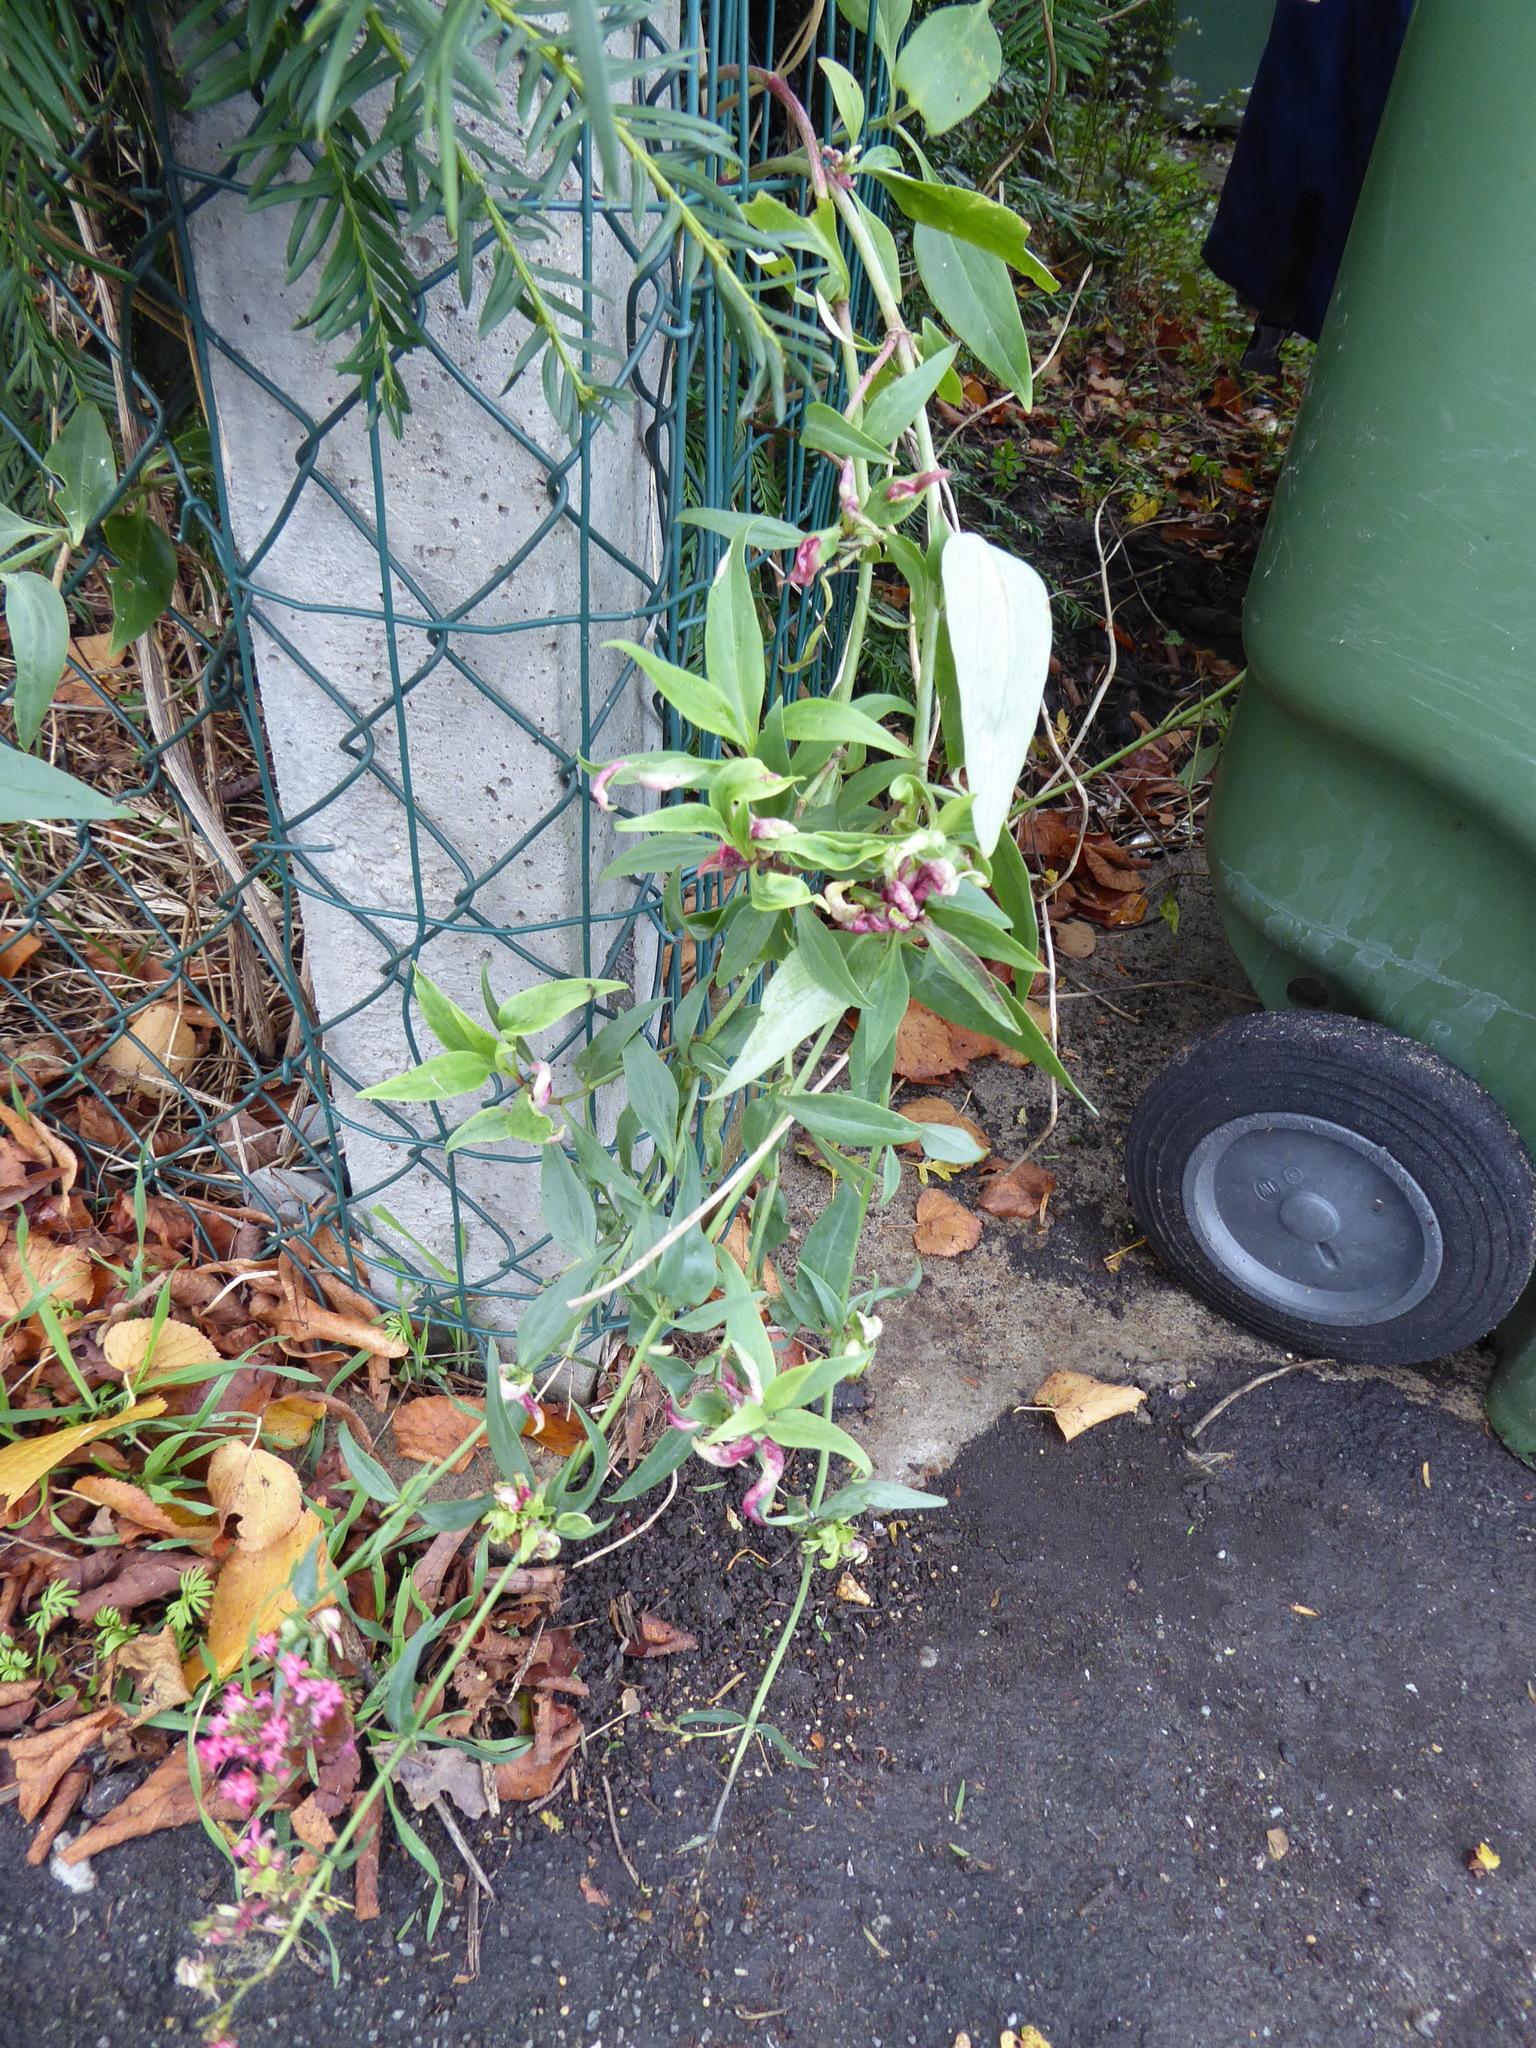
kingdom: Plantae
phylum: Tracheophyta
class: Magnoliopsida
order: Dipsacales
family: Caprifoliaceae
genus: Centranthus
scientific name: Centranthus ruber
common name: Red valerian
